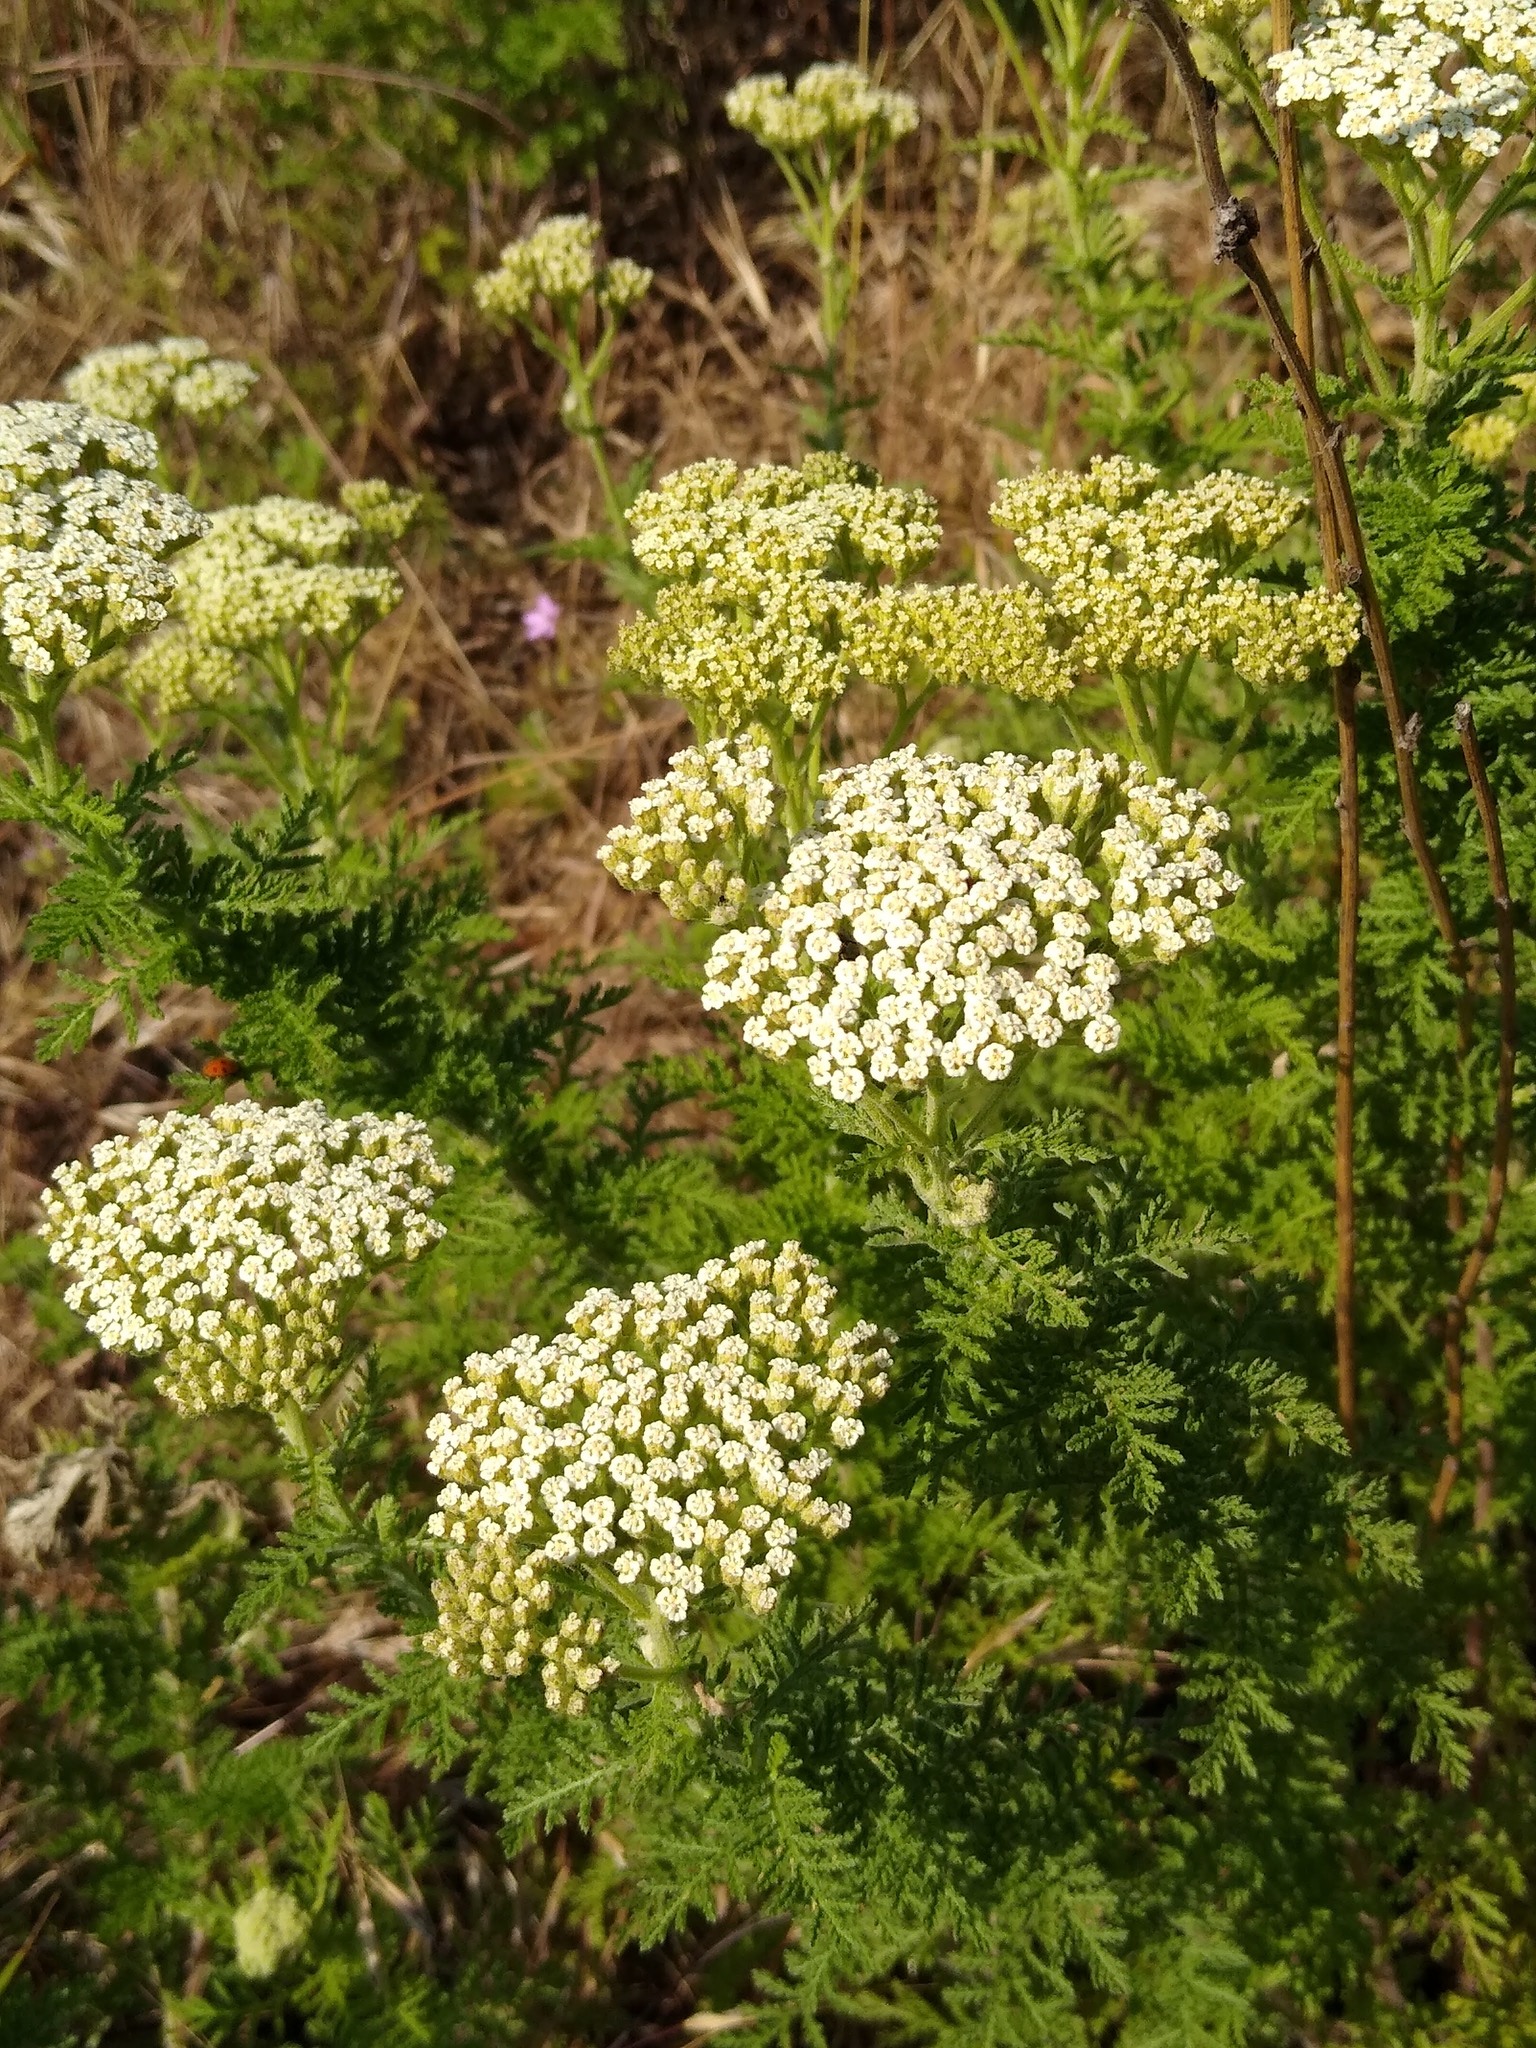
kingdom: Plantae
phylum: Tracheophyta
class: Magnoliopsida
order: Asterales
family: Asteraceae
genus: Achillea
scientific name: Achillea nobilis
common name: Noble yarrow
